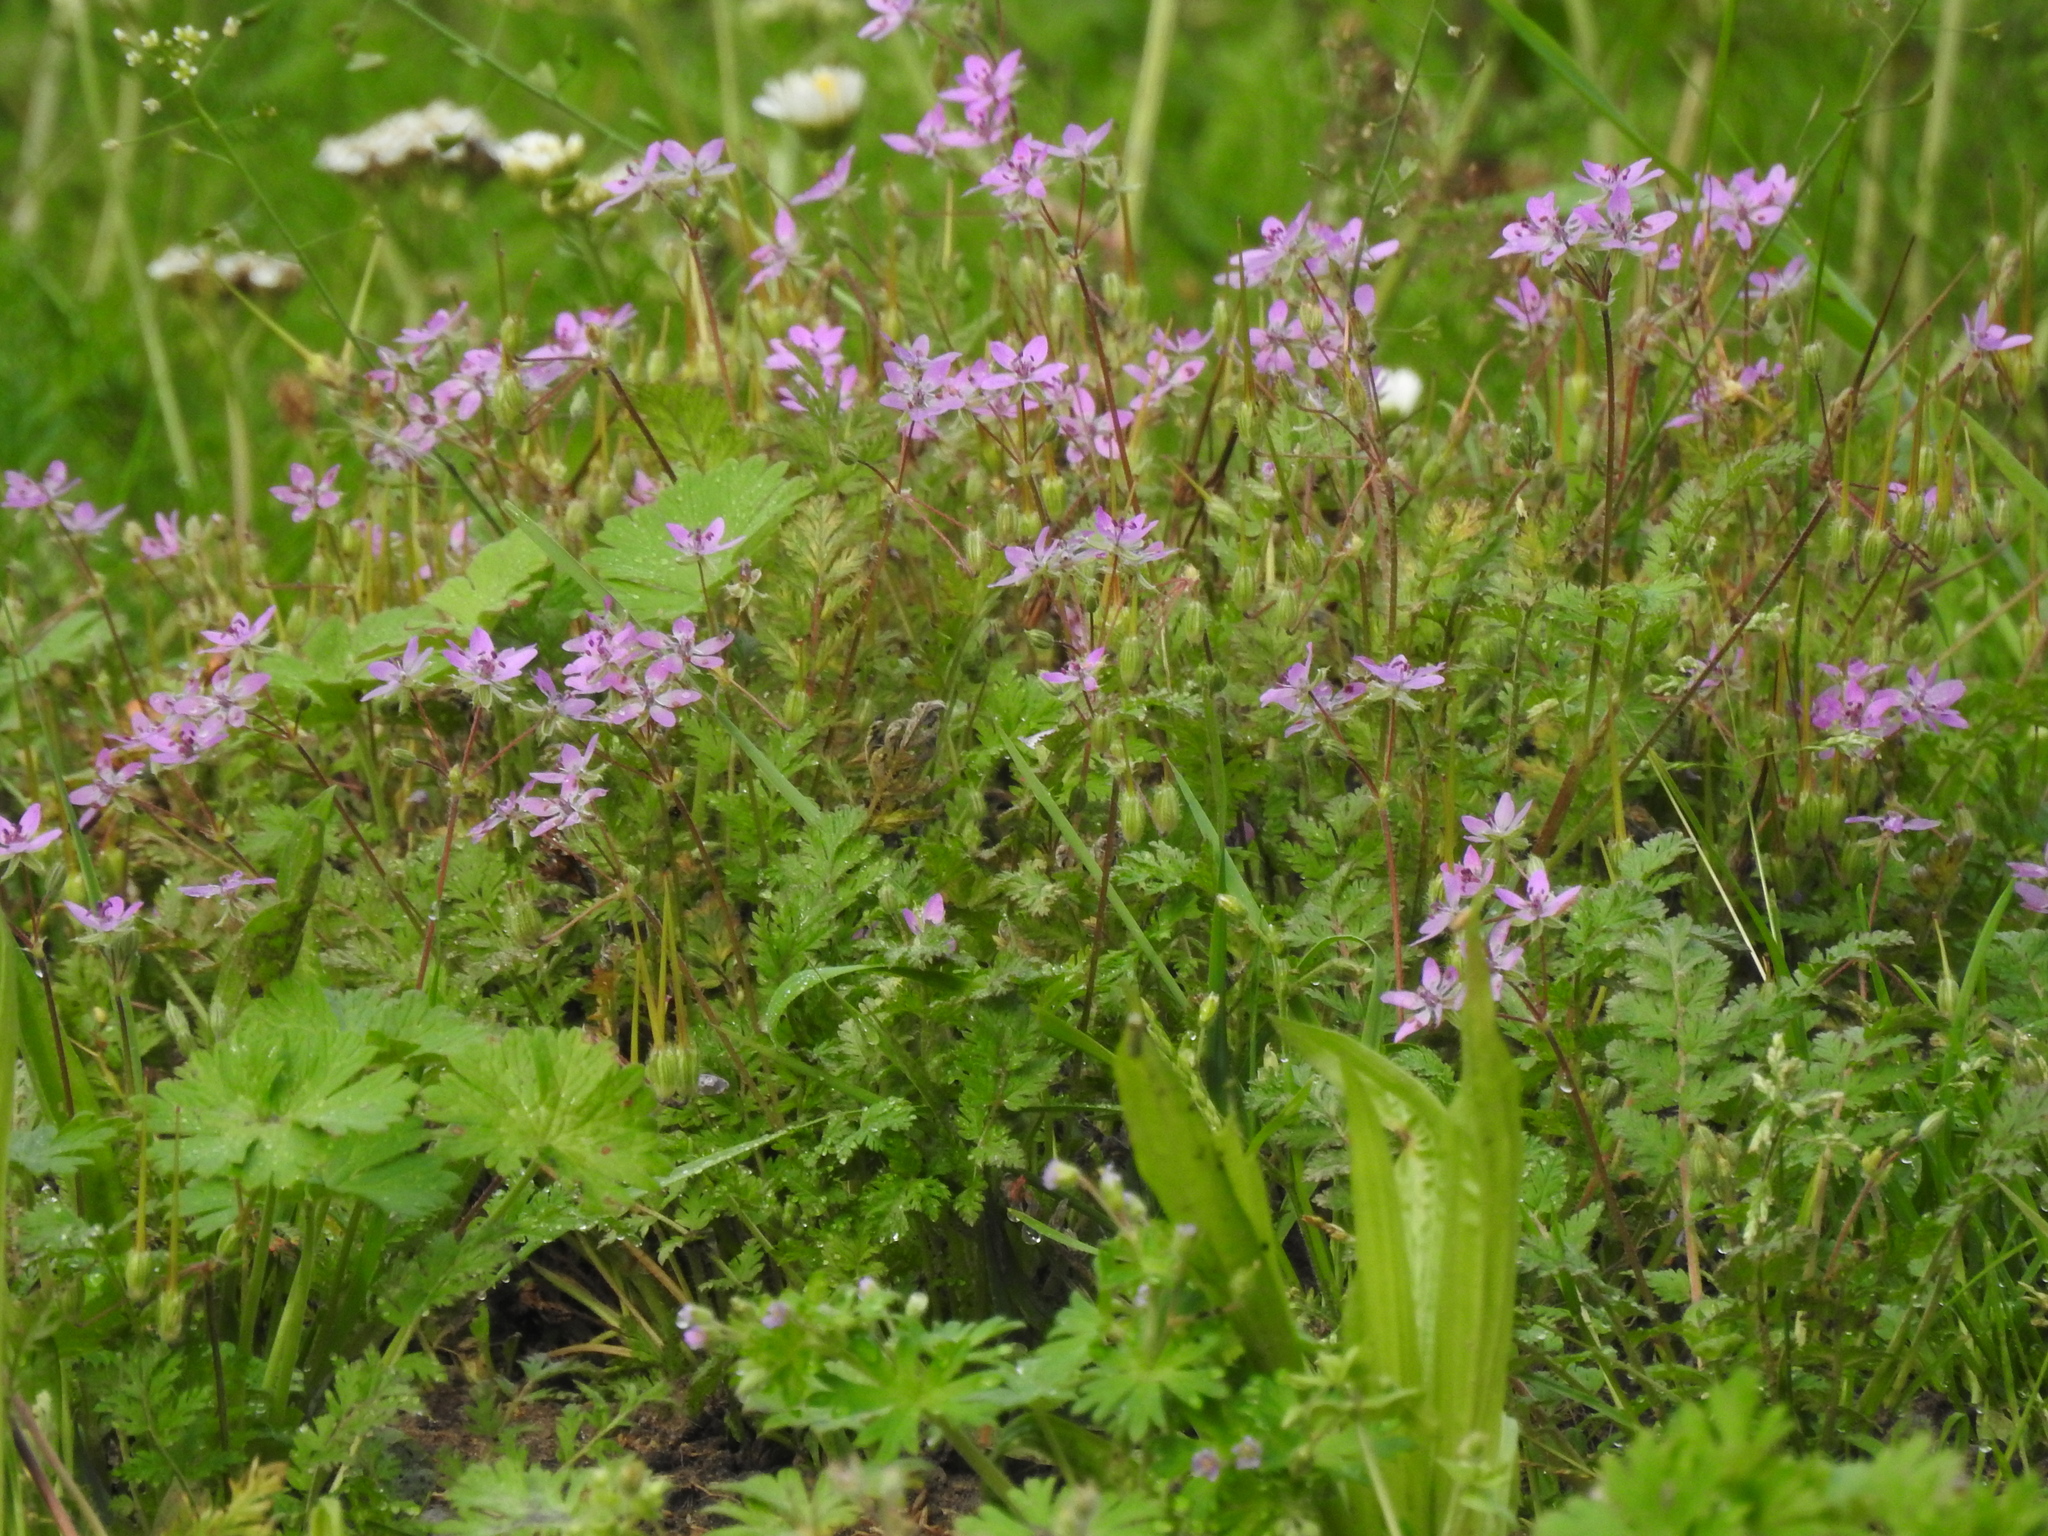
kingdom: Plantae
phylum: Tracheophyta
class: Magnoliopsida
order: Geraniales
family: Geraniaceae
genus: Erodium
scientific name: Erodium cicutarium
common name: Common stork's-bill
